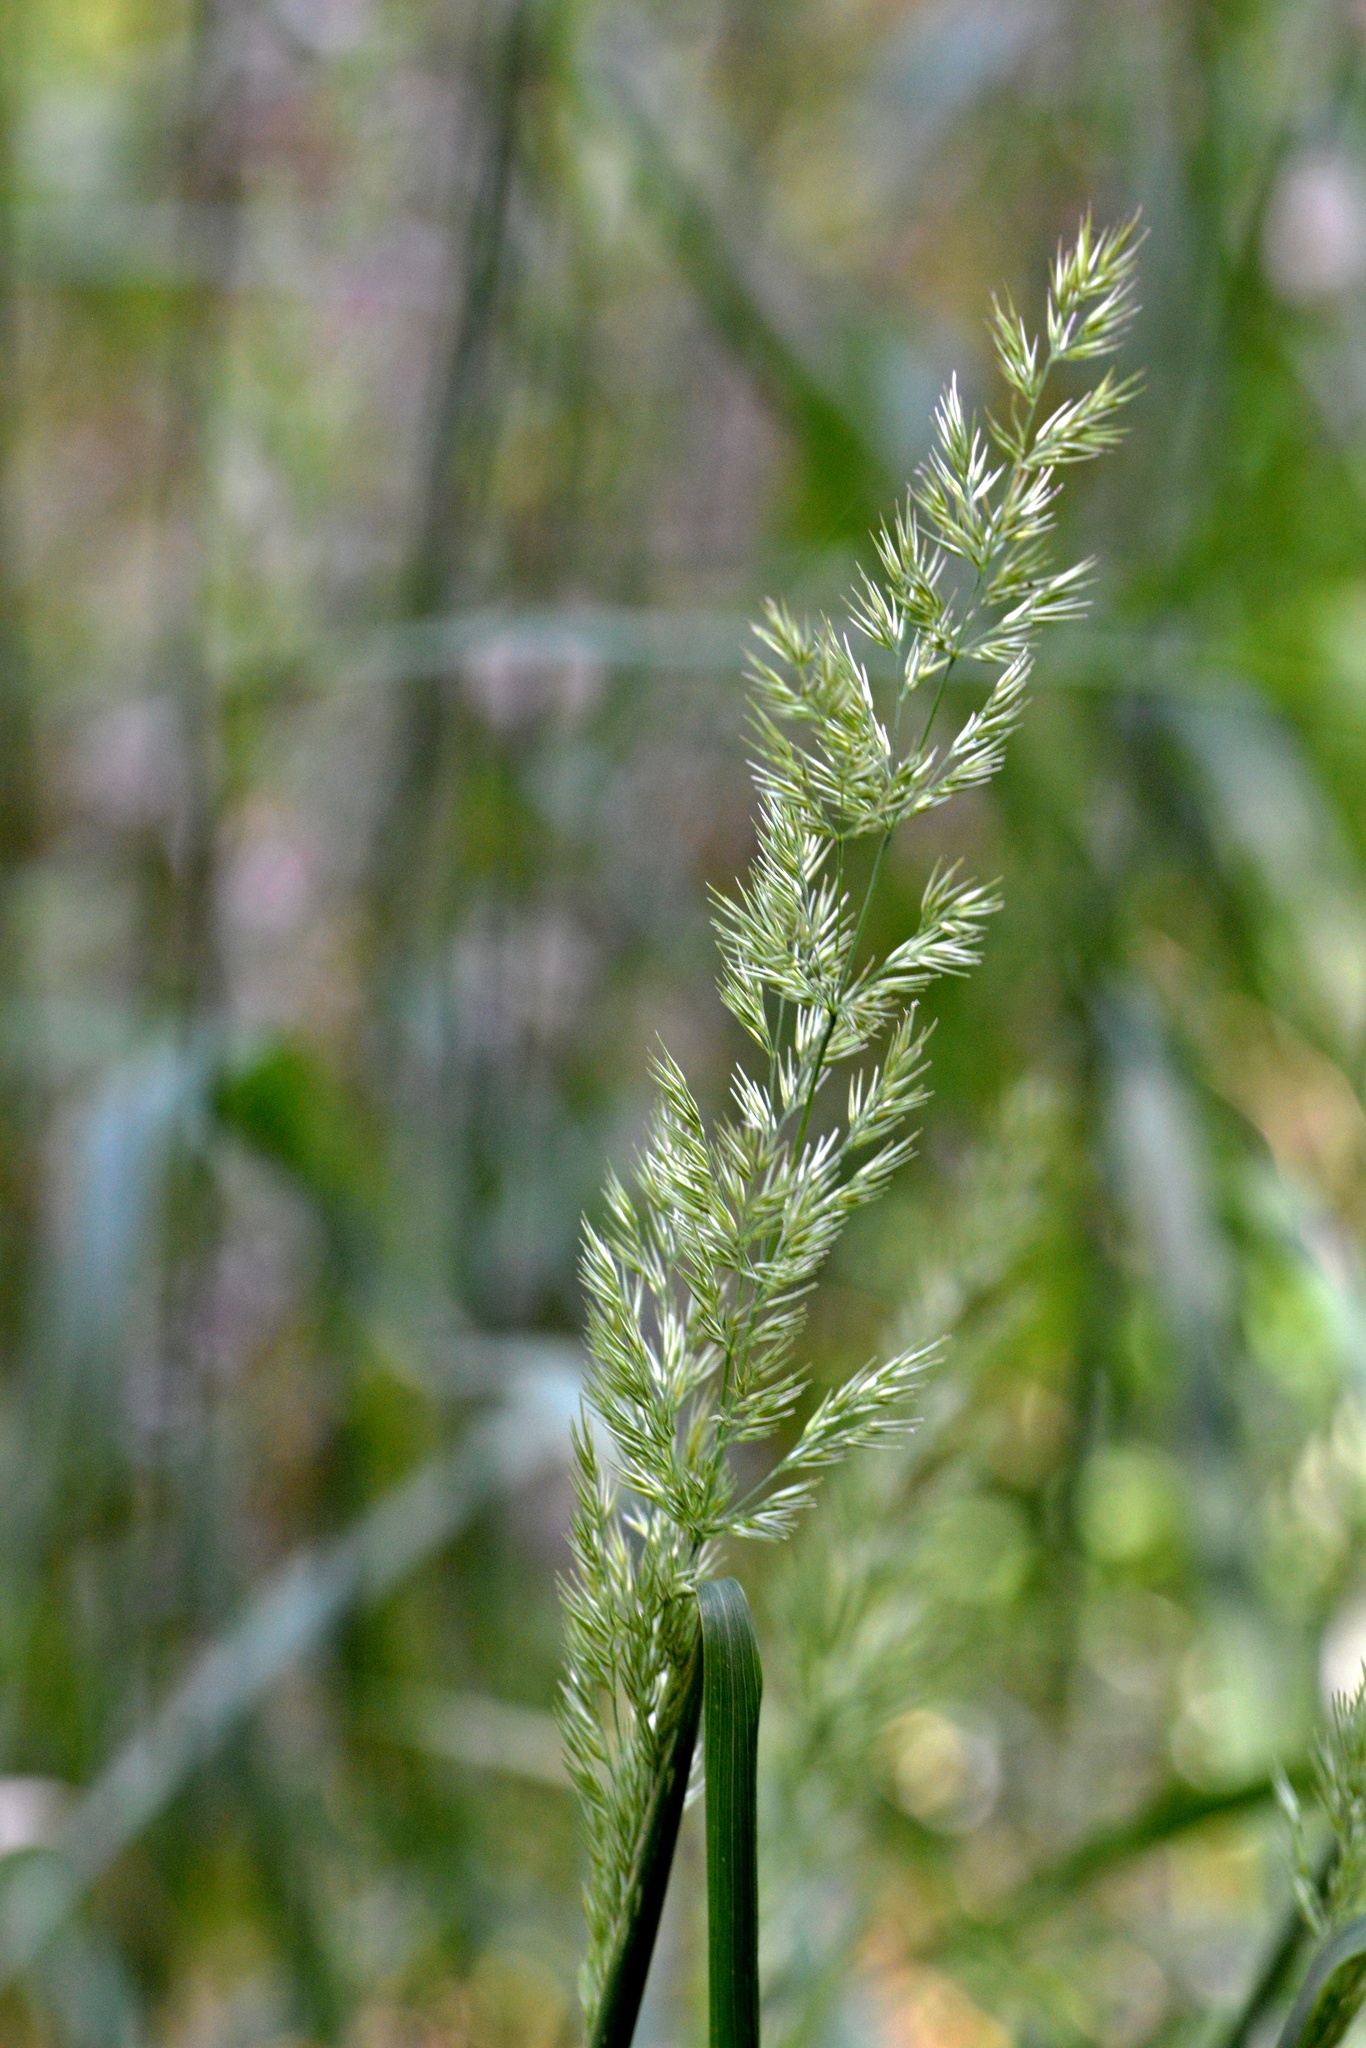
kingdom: Plantae
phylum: Tracheophyta
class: Liliopsida
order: Poales
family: Poaceae
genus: Calamagrostis
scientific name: Calamagrostis epigejos
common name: Wood small-reed
